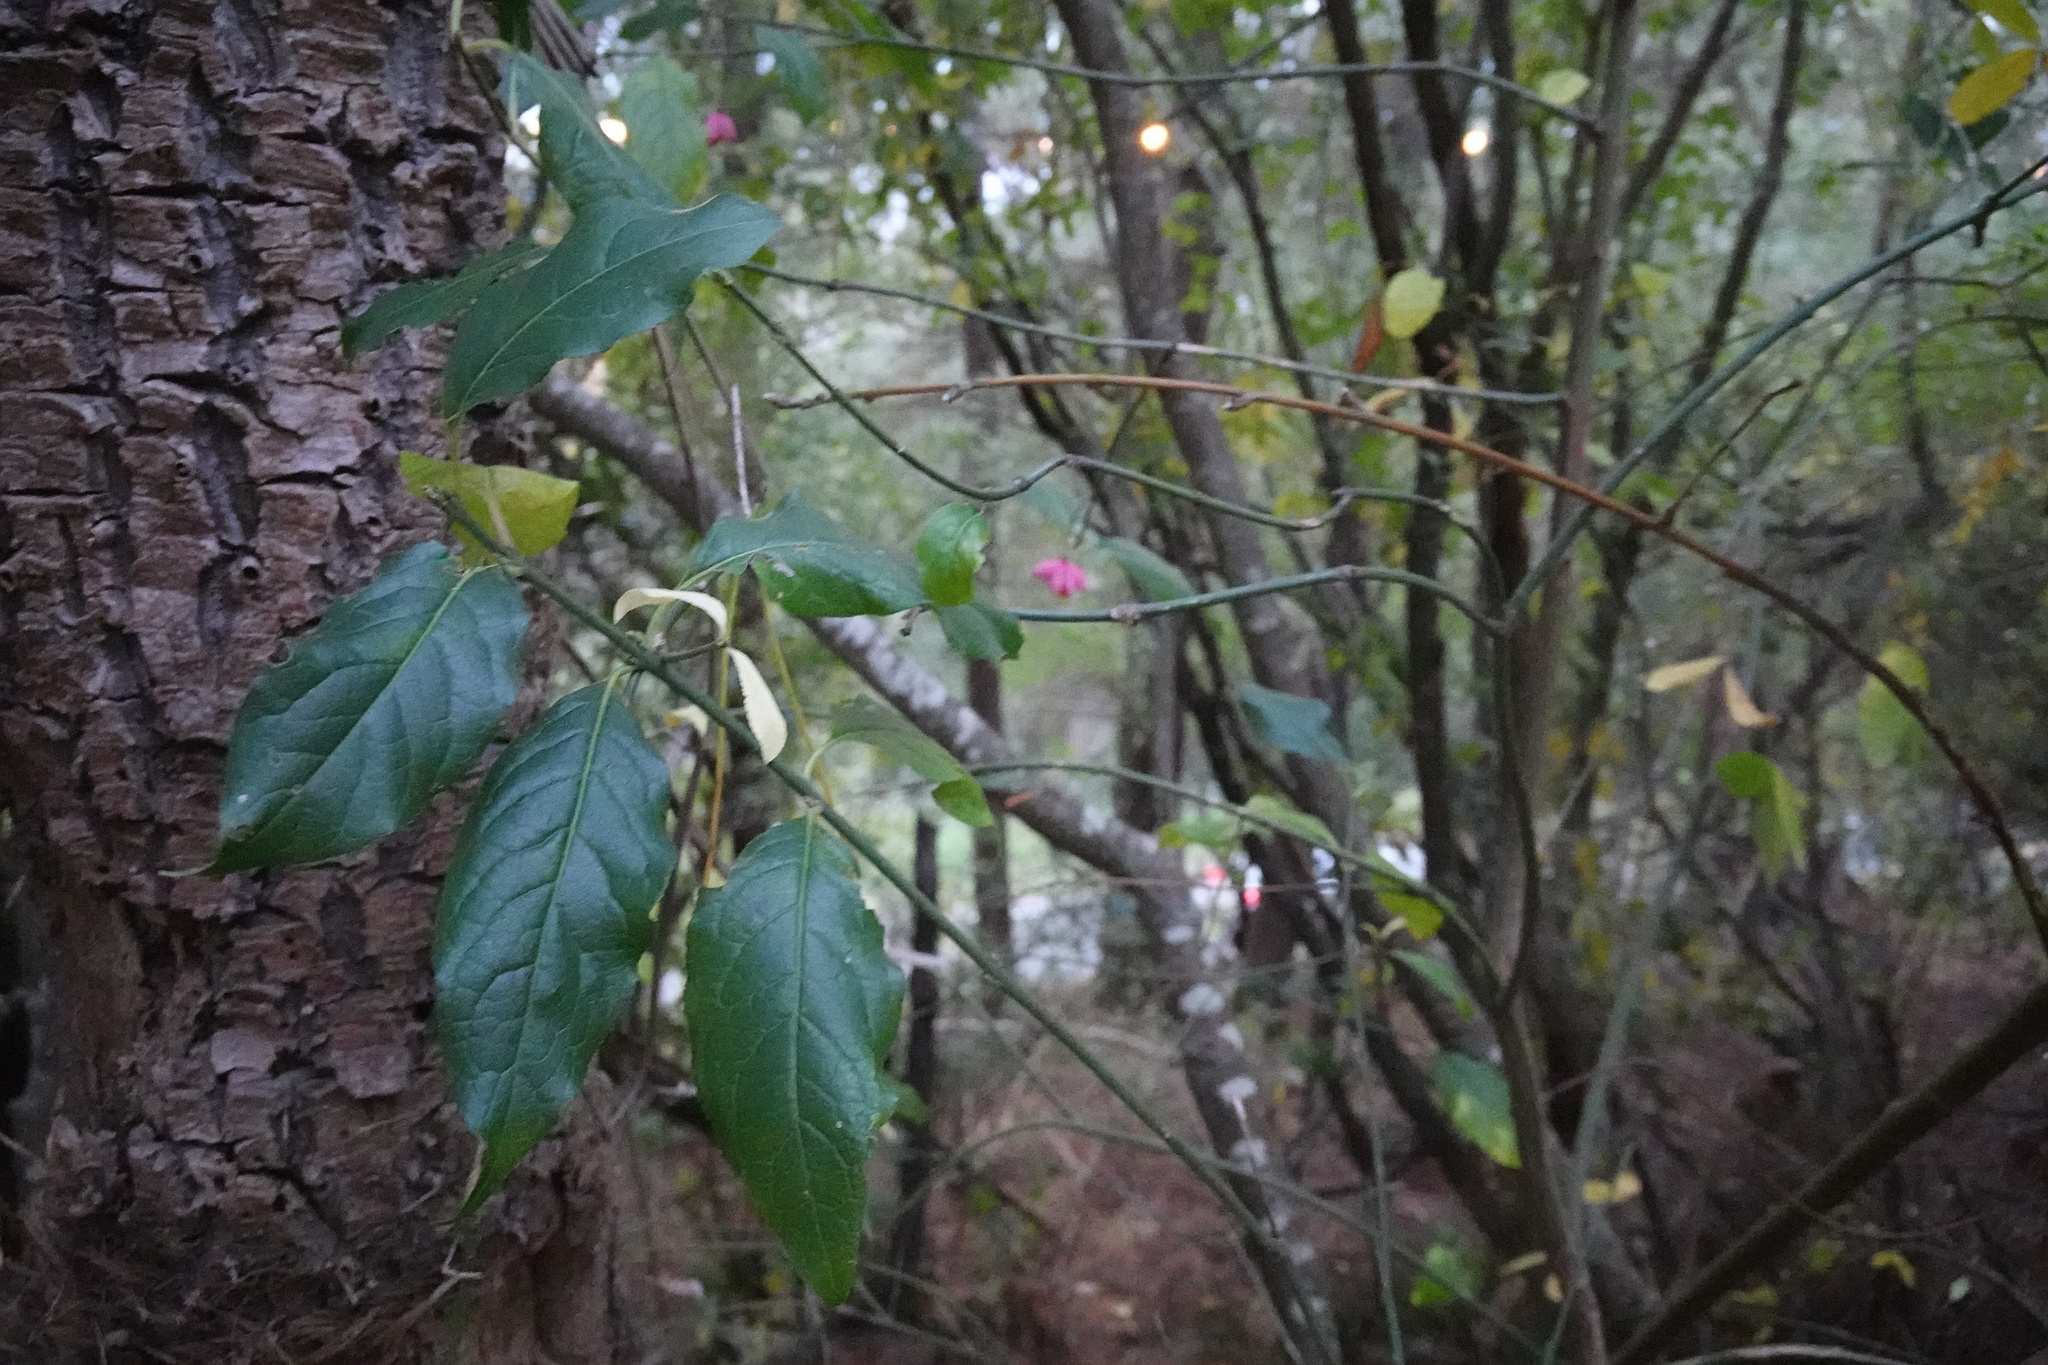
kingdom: Plantae
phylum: Tracheophyta
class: Magnoliopsida
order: Celastrales
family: Celastraceae
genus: Euonymus
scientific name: Euonymus europaeus
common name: Spindle
